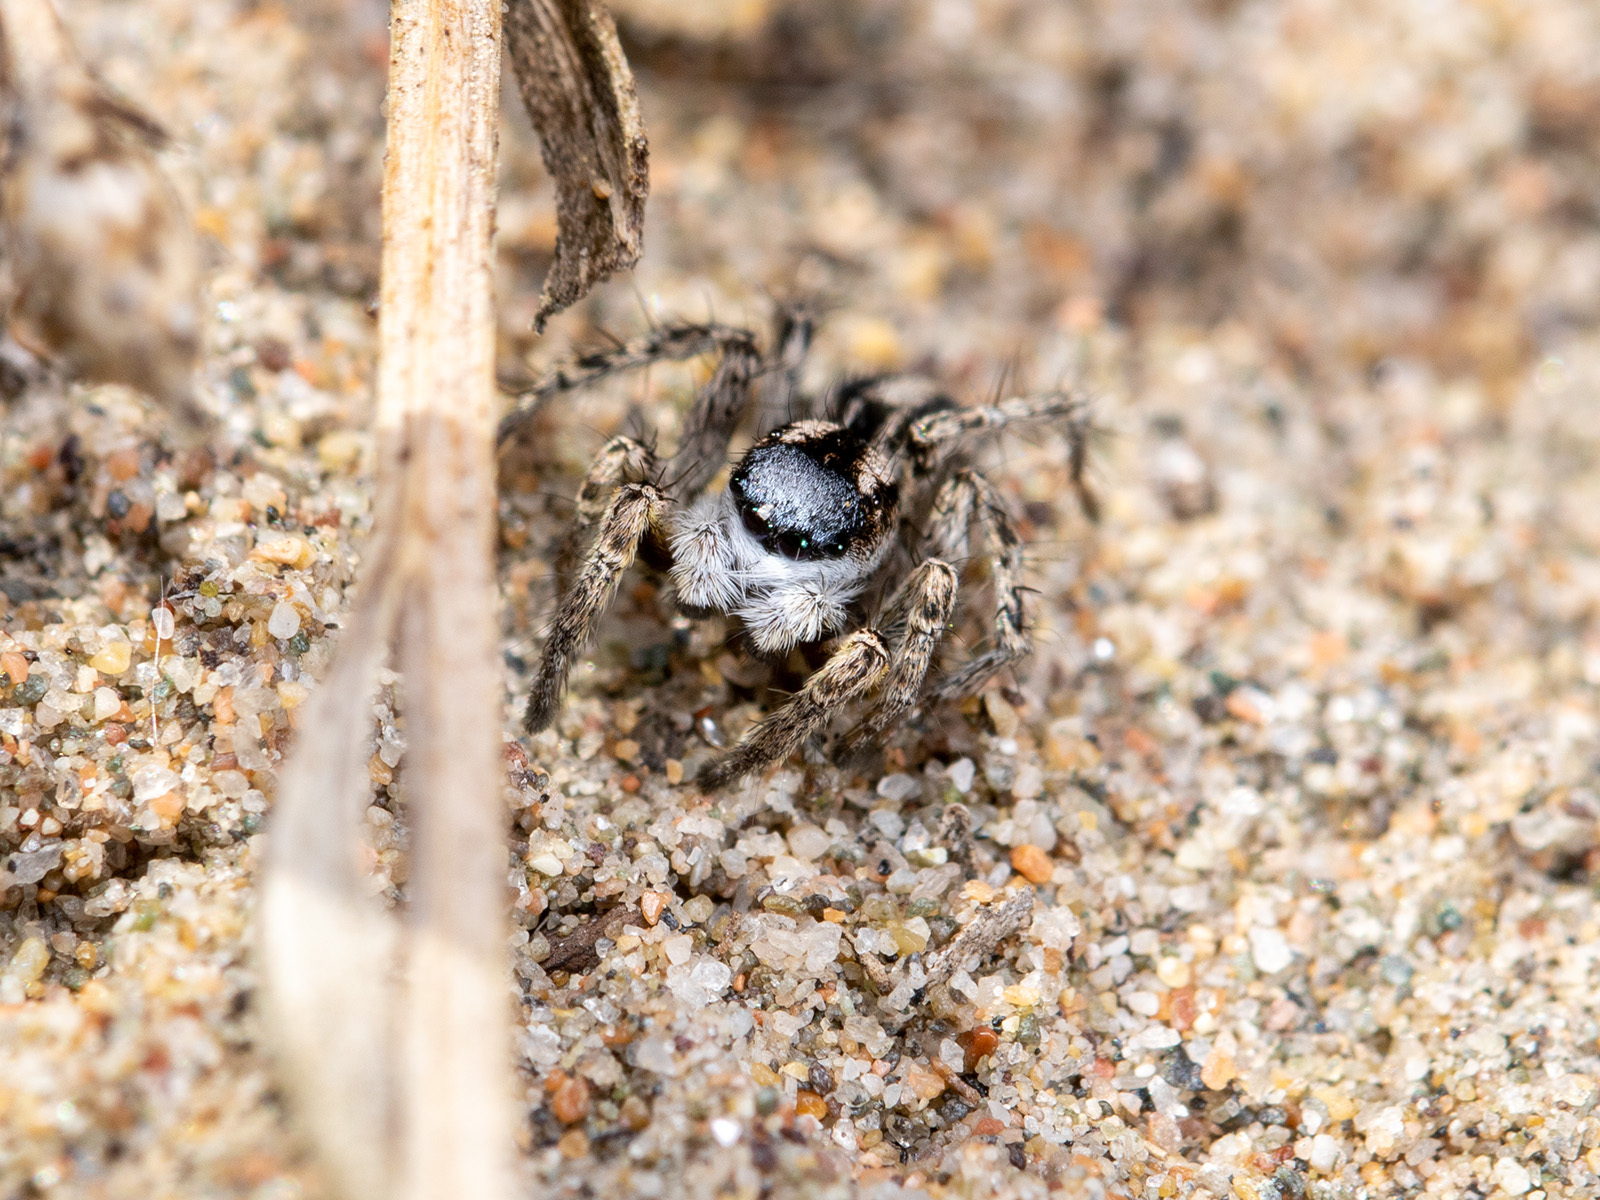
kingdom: Animalia
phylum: Arthropoda
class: Arachnida
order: Araneae
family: Salticidae
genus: Aelurillus
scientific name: Aelurillus m-nigrum
